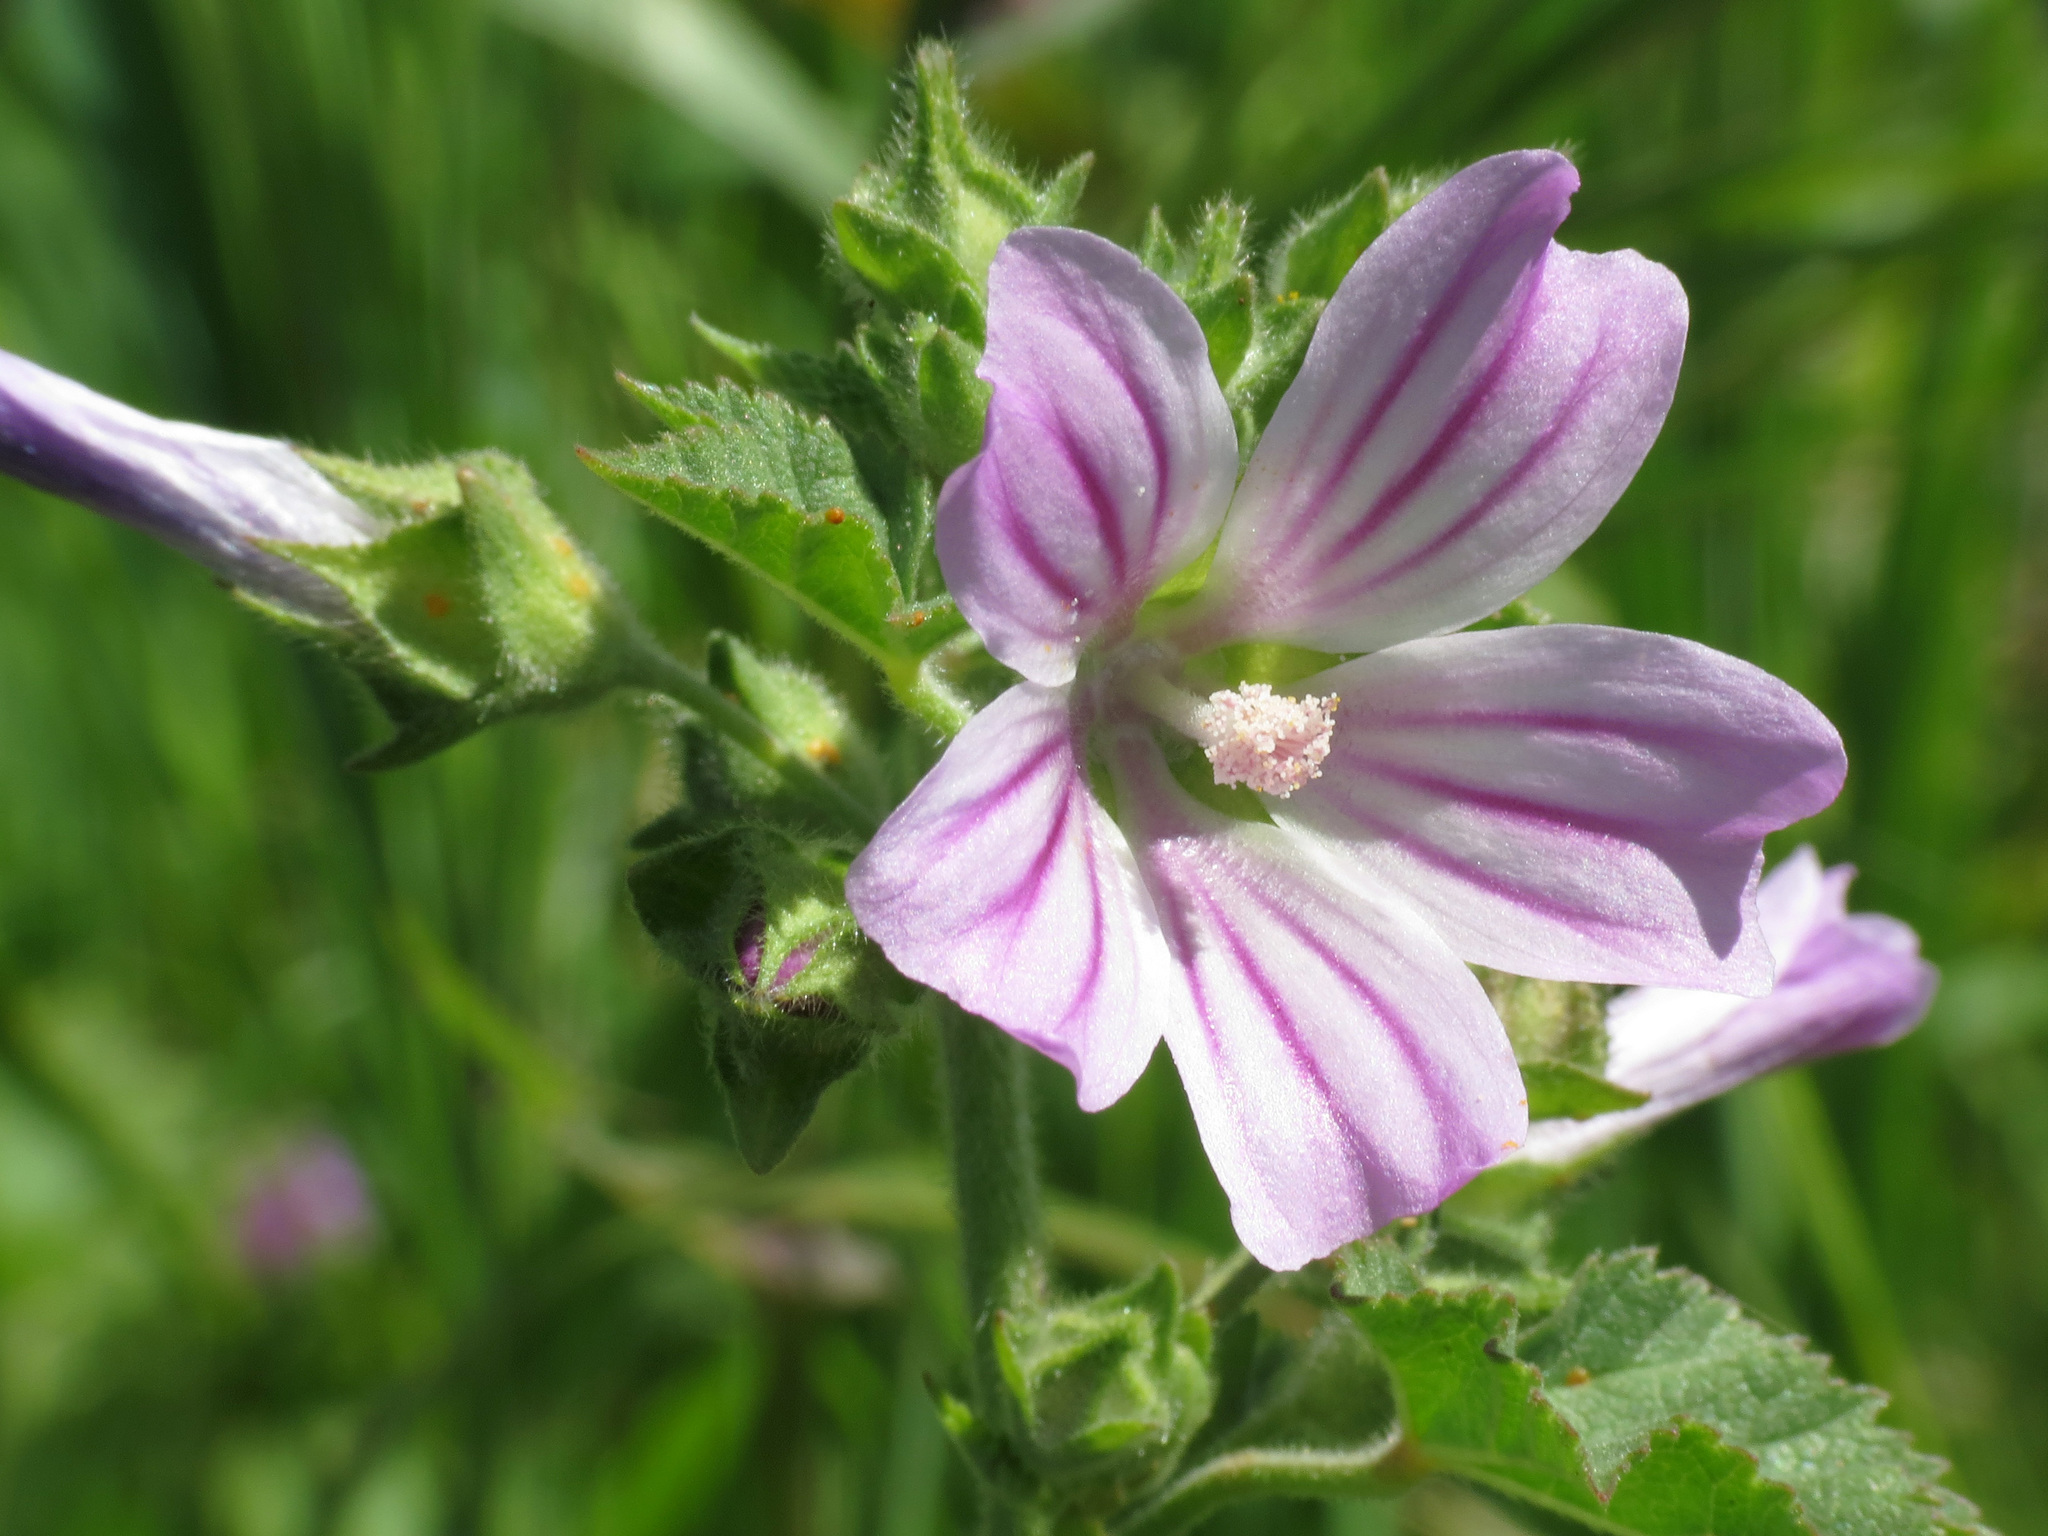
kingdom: Plantae
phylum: Tracheophyta
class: Magnoliopsida
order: Malvales
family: Malvaceae
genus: Malva
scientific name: Malva multiflora
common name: Cheeseweed
